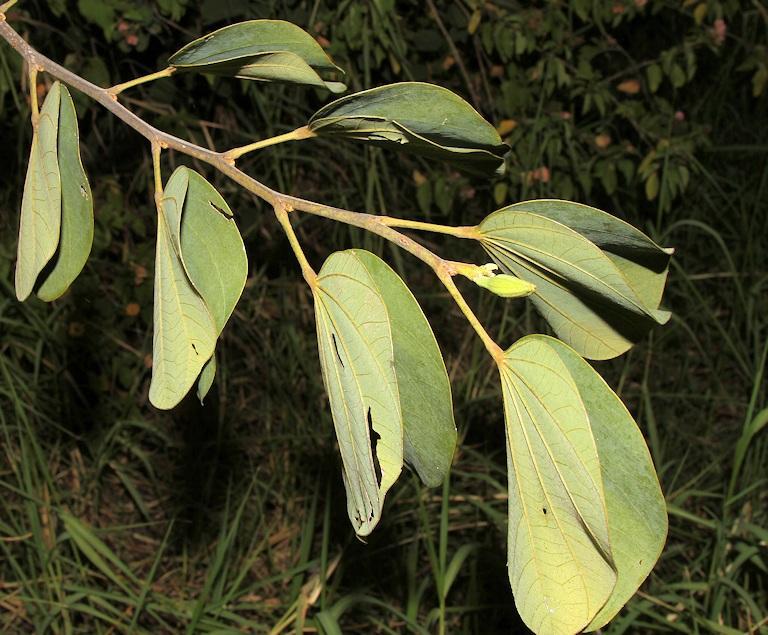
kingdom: Plantae
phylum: Tracheophyta
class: Magnoliopsida
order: Fabales
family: Fabaceae
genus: Bauhinia
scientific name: Bauhinia variegata
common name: Mountain ebony
